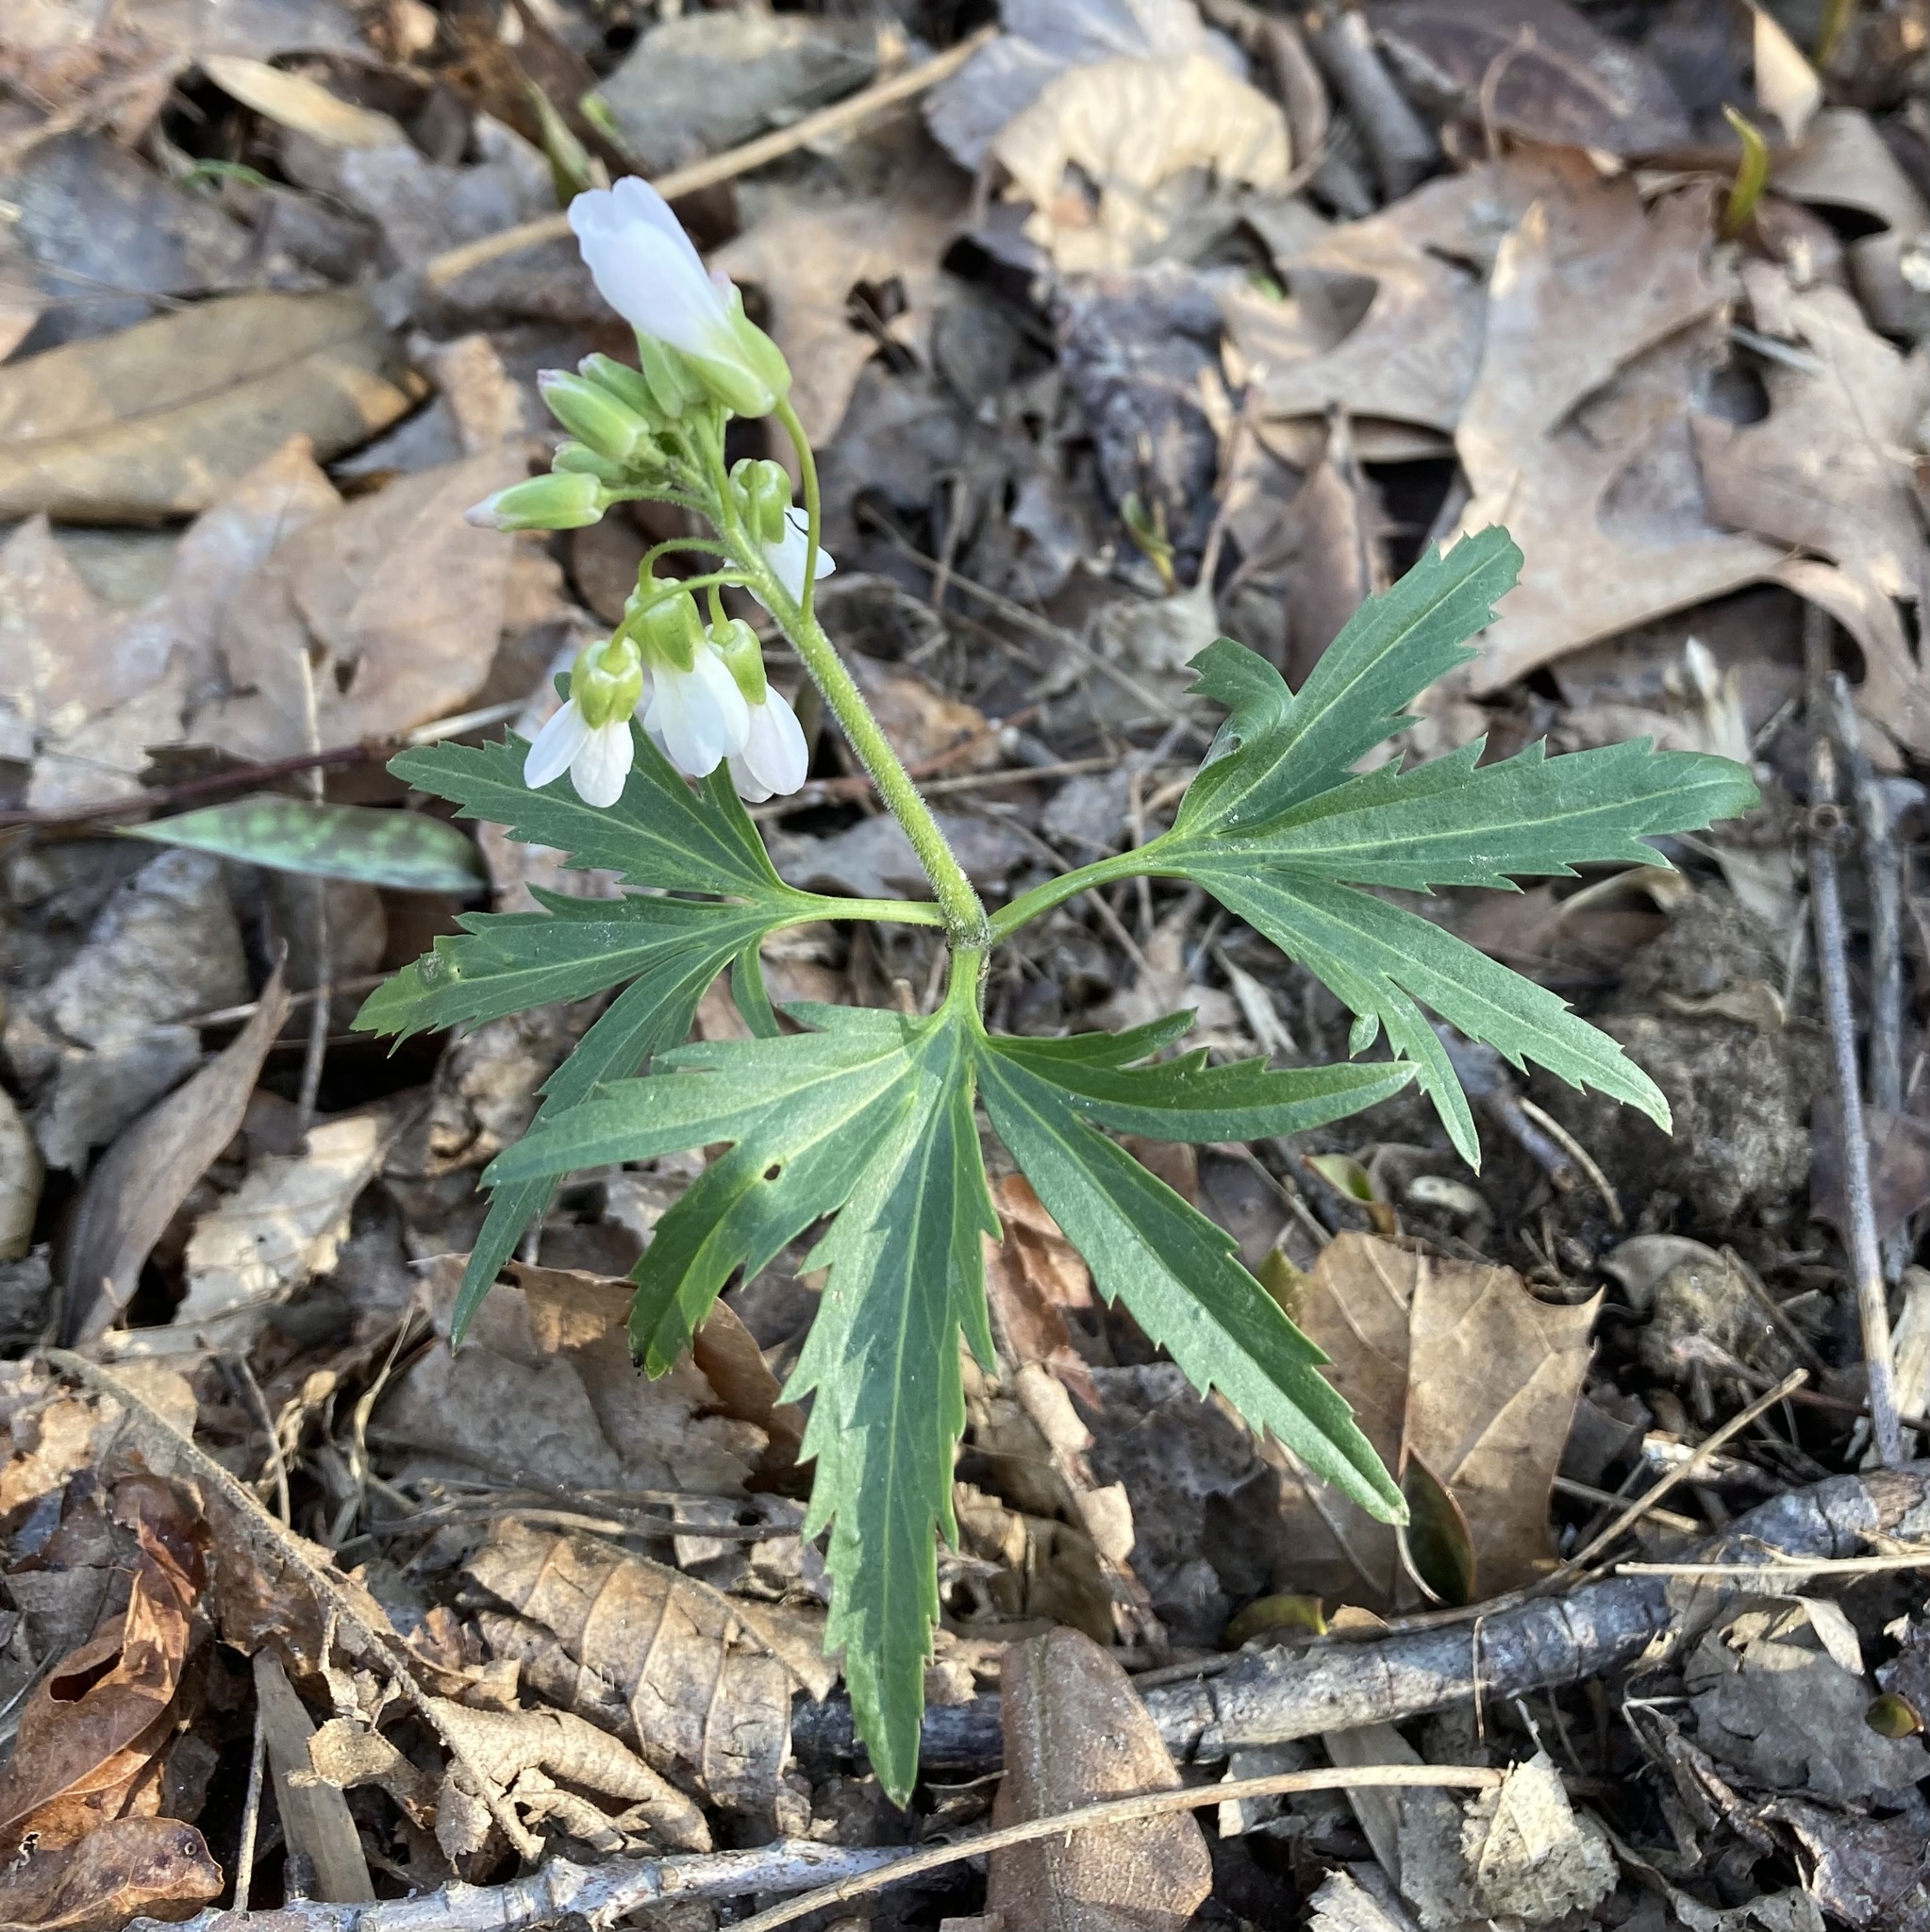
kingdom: Plantae
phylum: Tracheophyta
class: Magnoliopsida
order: Brassicales
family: Brassicaceae
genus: Cardamine
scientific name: Cardamine concatenata
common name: Cut-leaf toothcup
